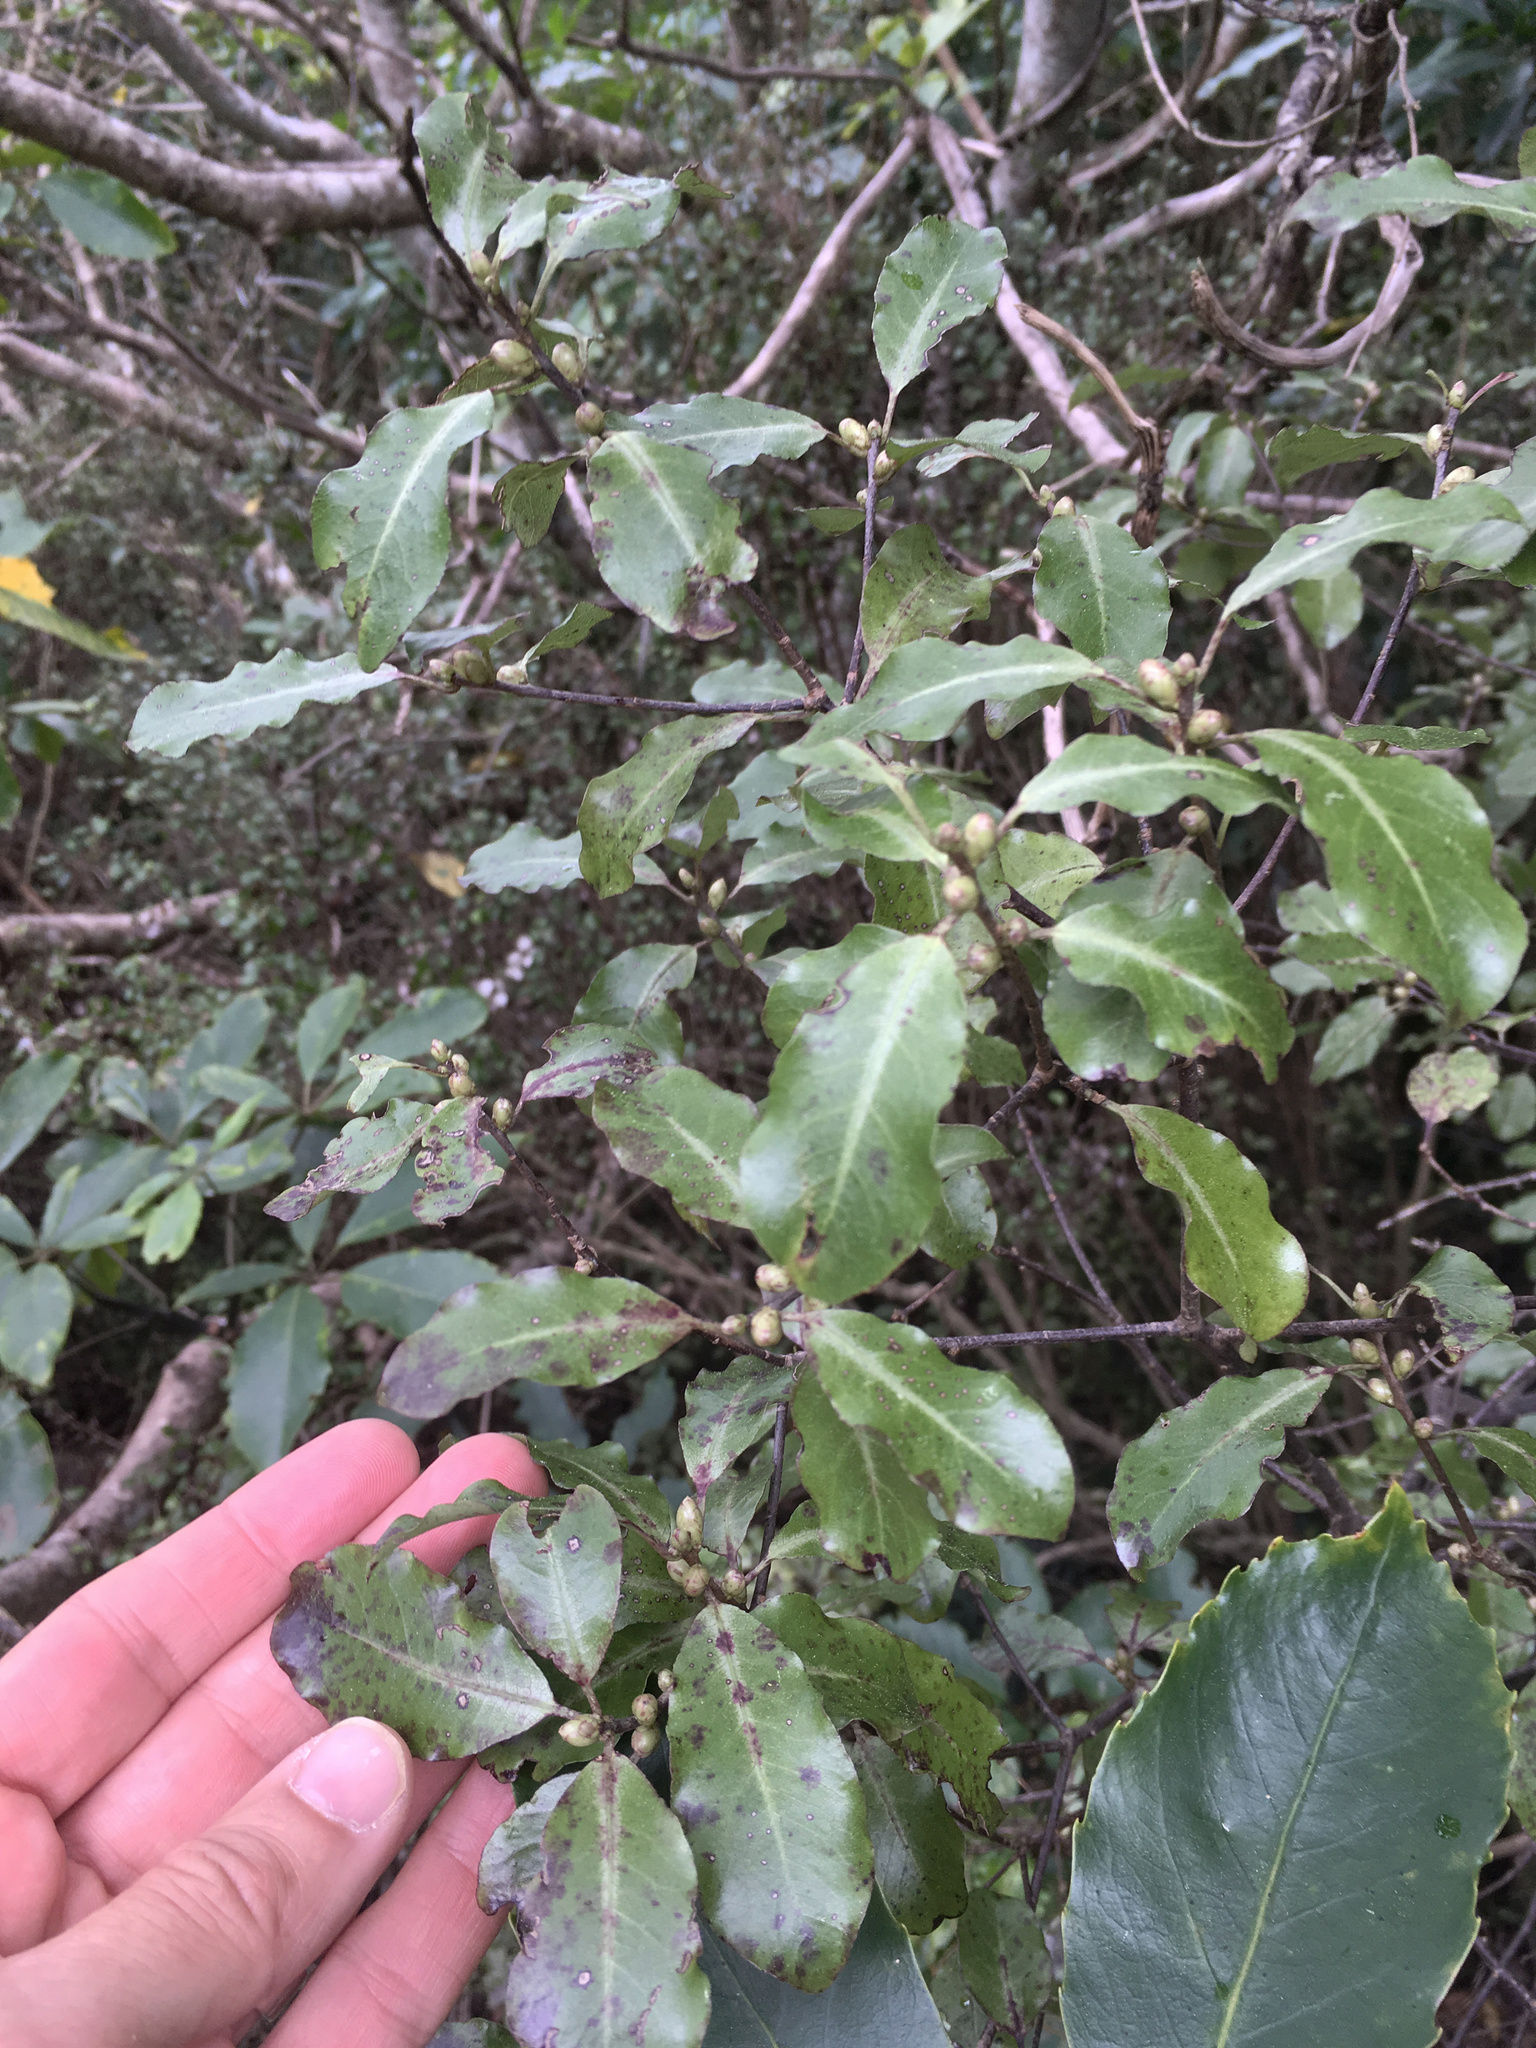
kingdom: Plantae
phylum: Tracheophyta
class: Magnoliopsida
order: Apiales
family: Pittosporaceae
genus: Pittosporum
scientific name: Pittosporum tenuifolium
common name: Kohuhu
